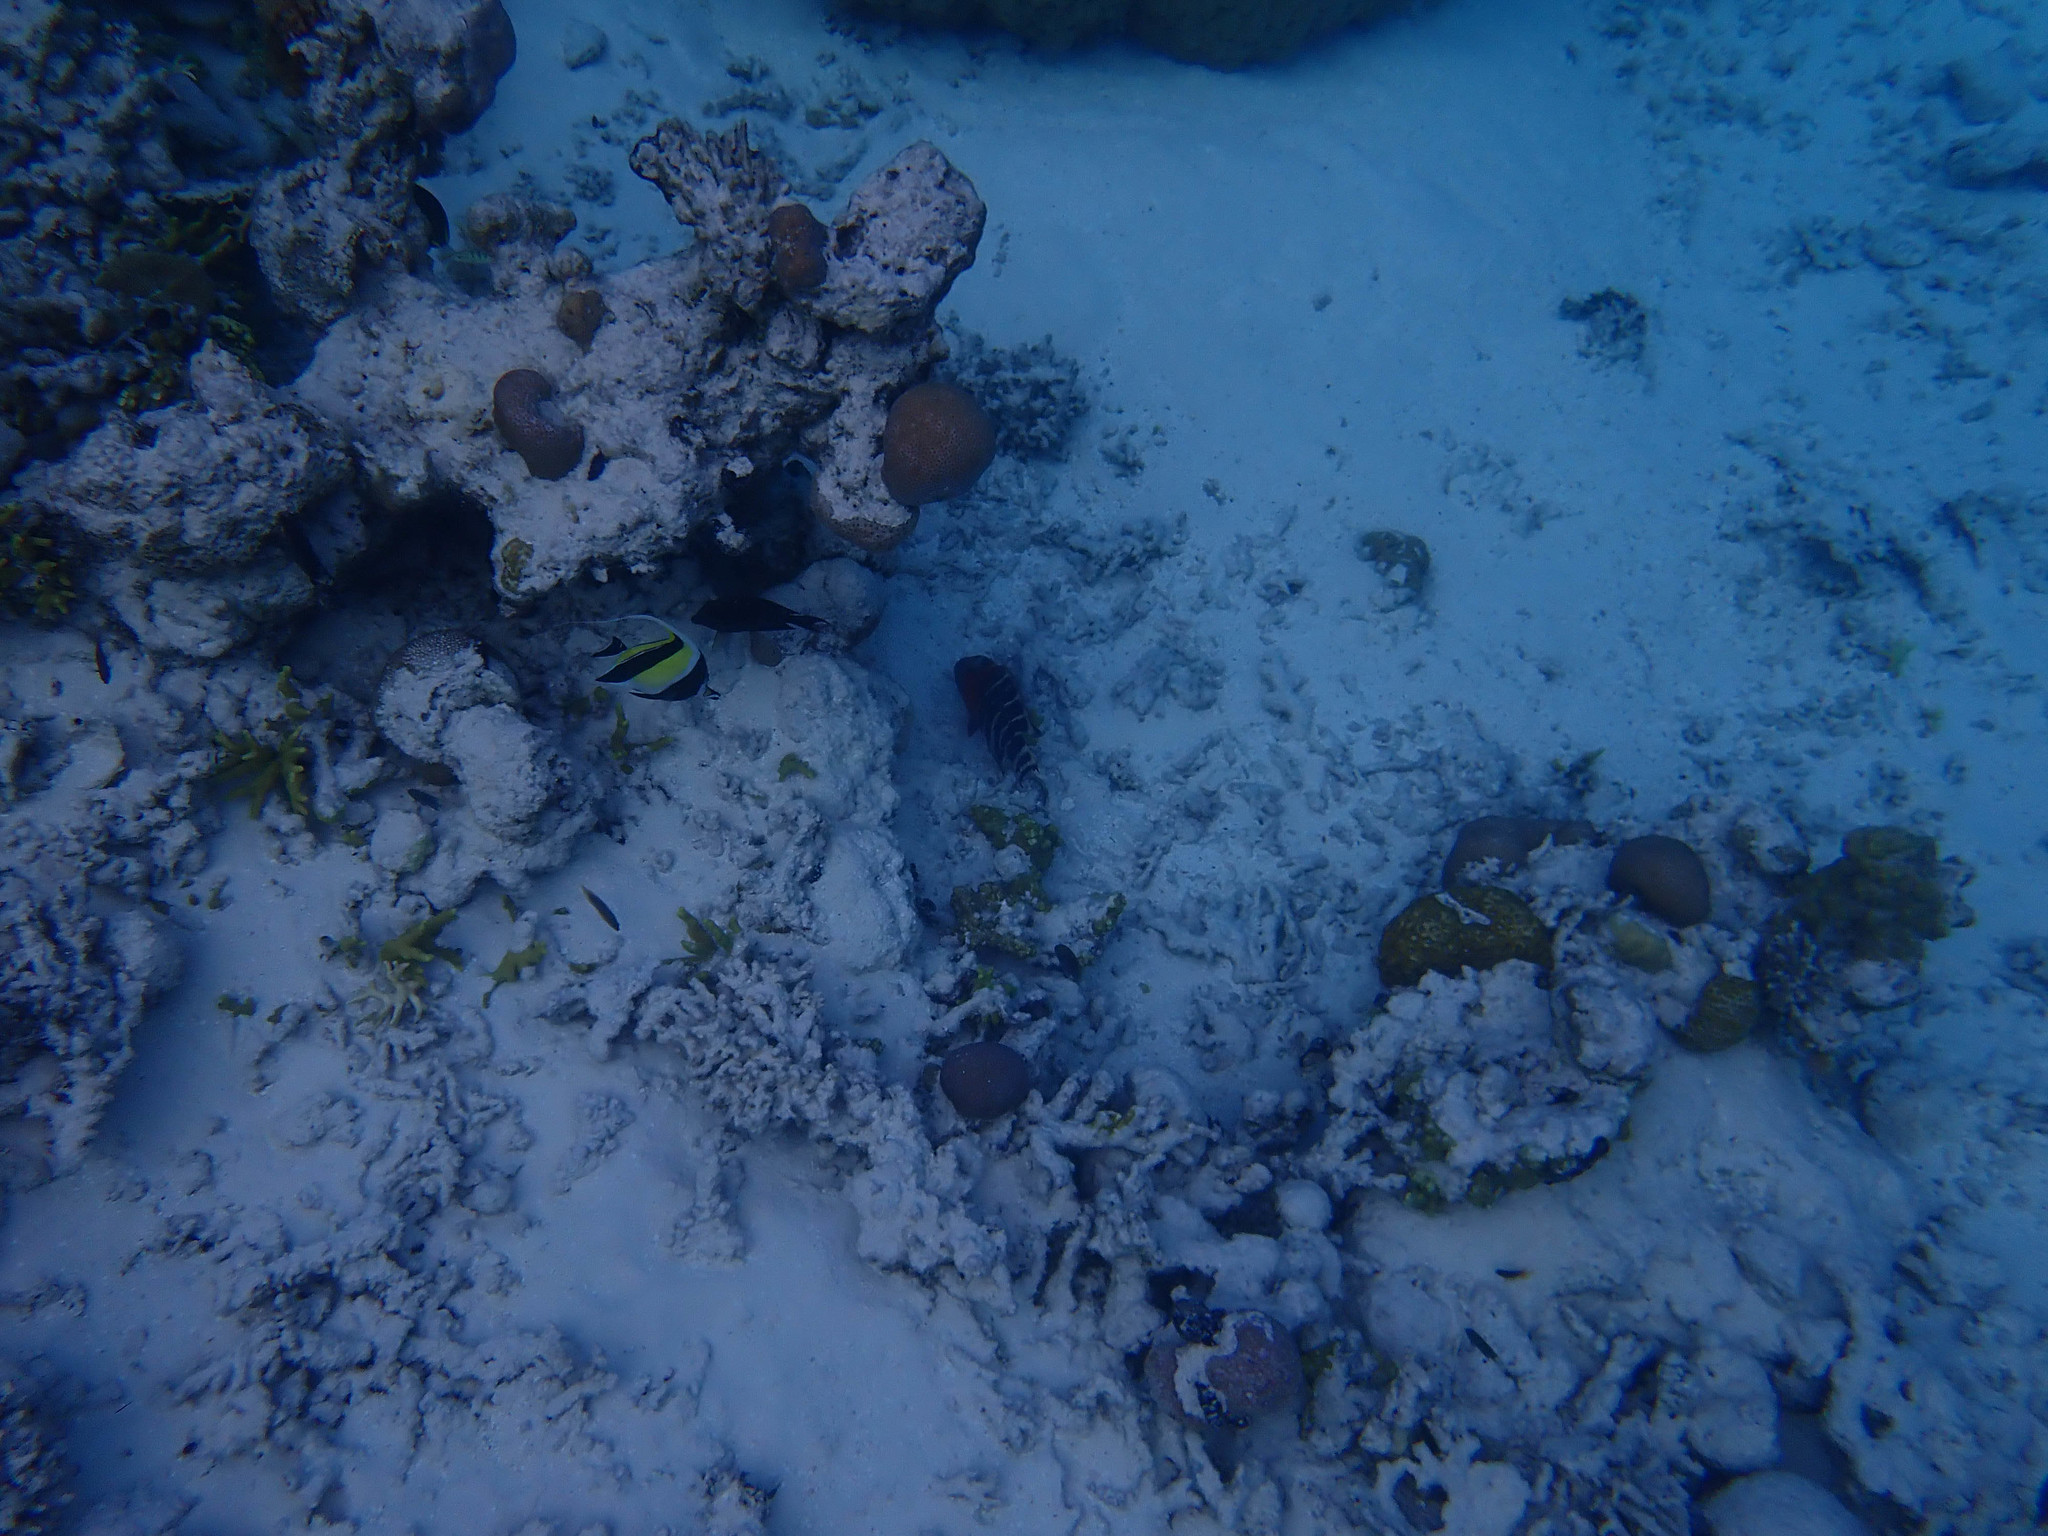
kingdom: Animalia
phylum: Chordata
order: Perciformes
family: Labridae
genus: Cheilinus
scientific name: Cheilinus fasciatus
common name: Red-breasted wrasse
